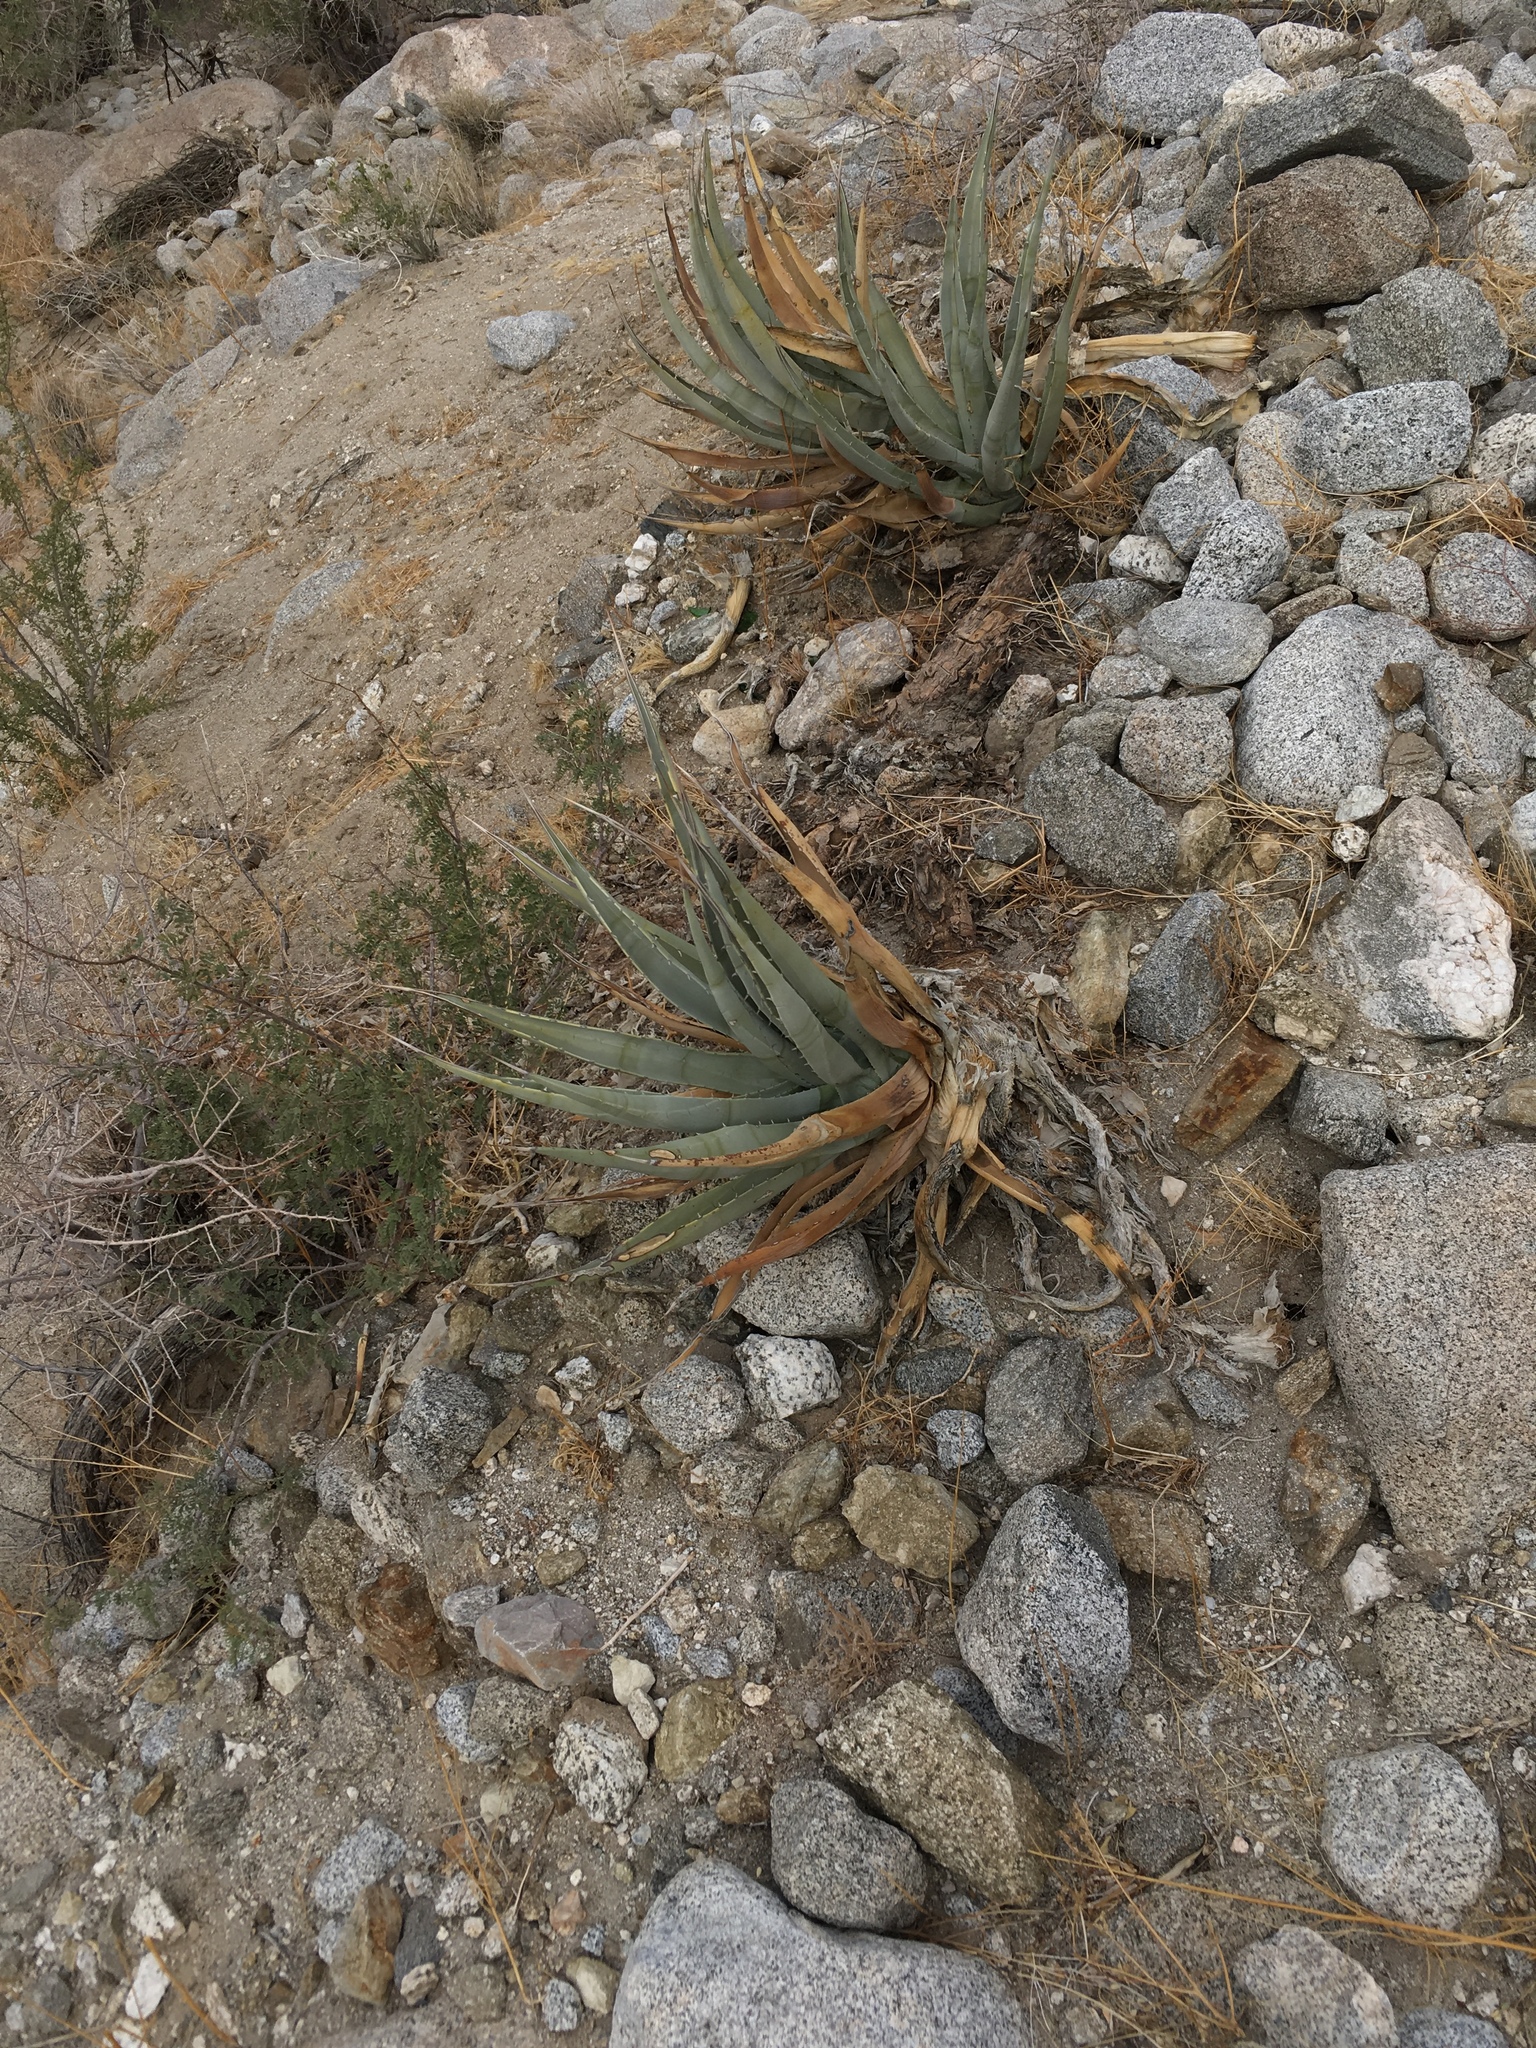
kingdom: Plantae
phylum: Tracheophyta
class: Liliopsida
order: Asparagales
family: Asparagaceae
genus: Agave
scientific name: Agave deserti
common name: Desert agave
